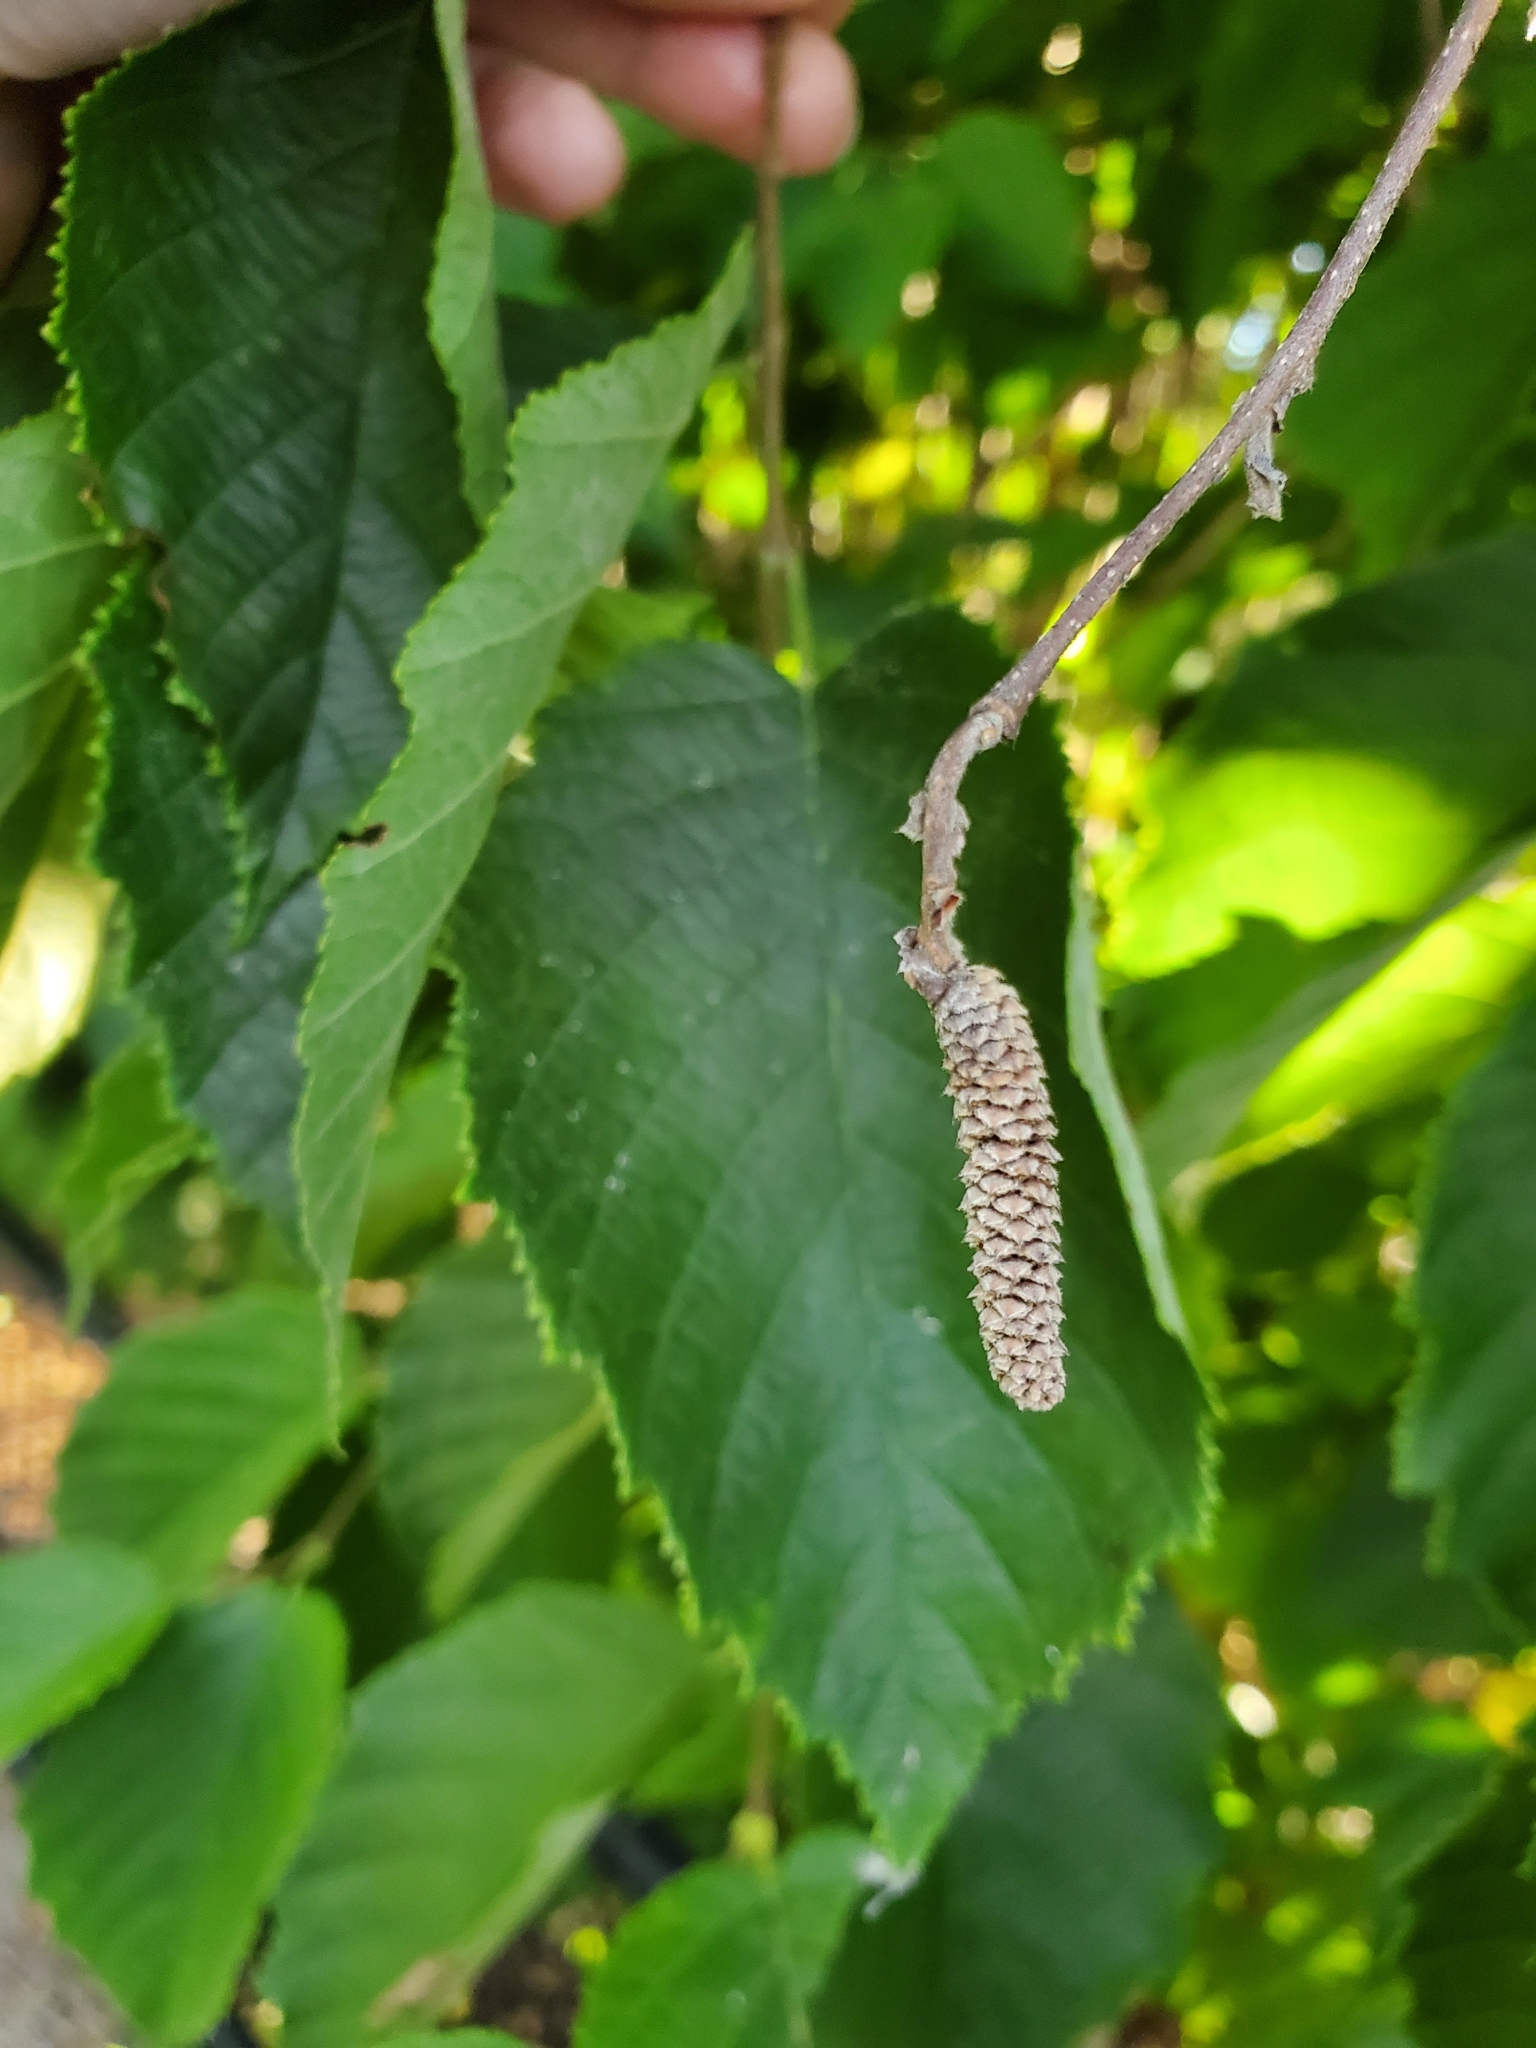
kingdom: Plantae
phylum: Tracheophyta
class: Magnoliopsida
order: Fagales
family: Betulaceae
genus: Corylus
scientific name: Corylus americana
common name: American hazel
